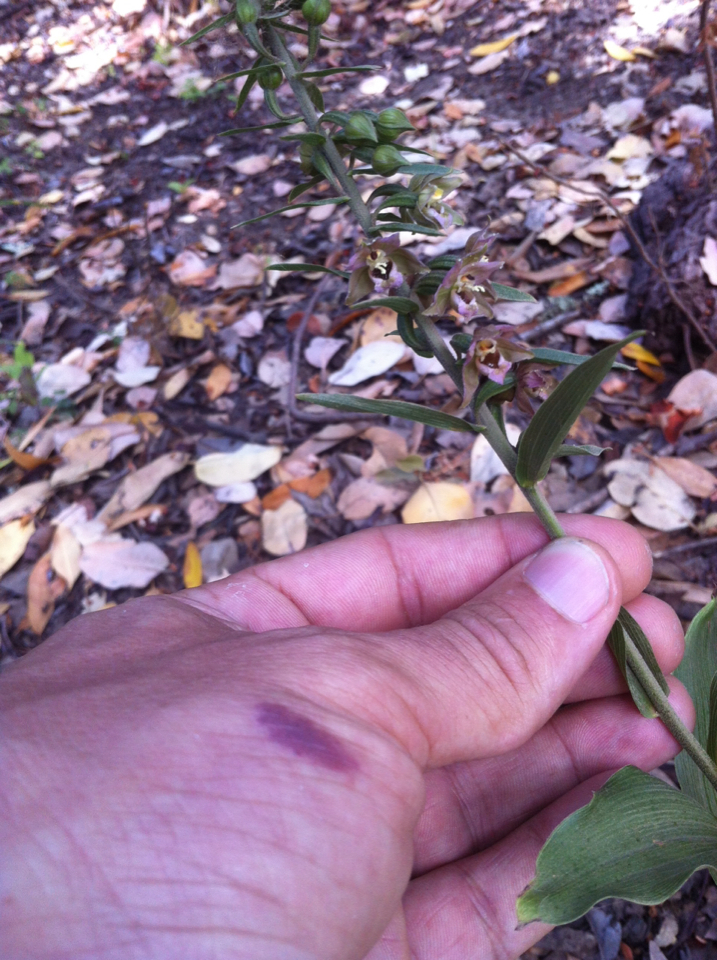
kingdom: Plantae
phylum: Tracheophyta
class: Liliopsida
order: Asparagales
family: Orchidaceae
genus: Epipactis
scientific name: Epipactis helleborine
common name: Broad-leaved helleborine
